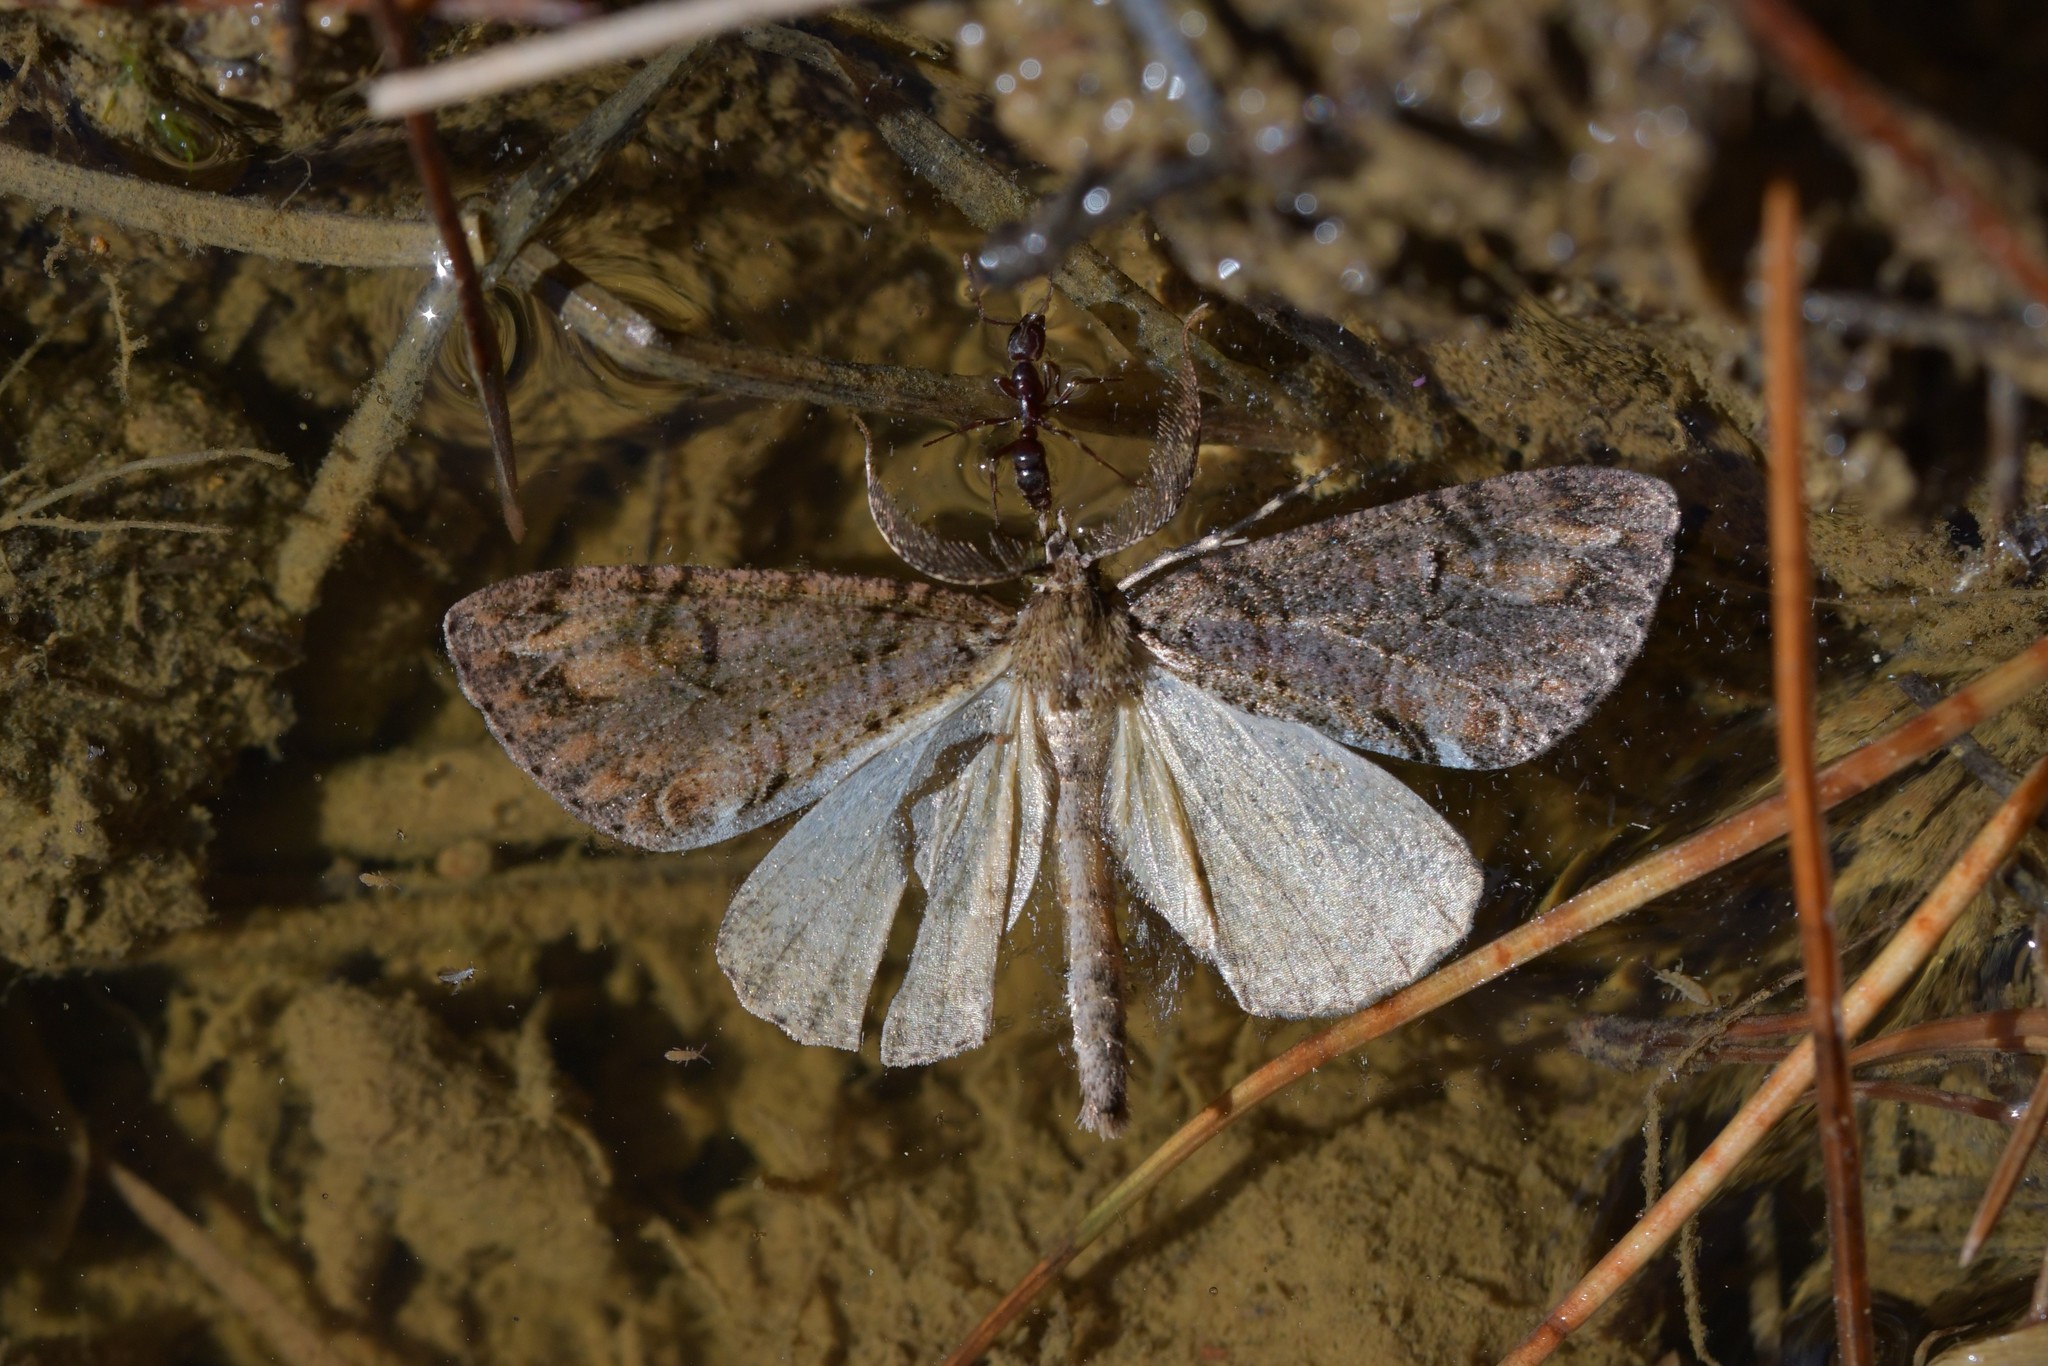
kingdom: Animalia
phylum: Arthropoda
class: Insecta
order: Lepidoptera
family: Geometridae
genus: Pseudocoremia
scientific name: Pseudocoremia suavis
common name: Common forest looper
